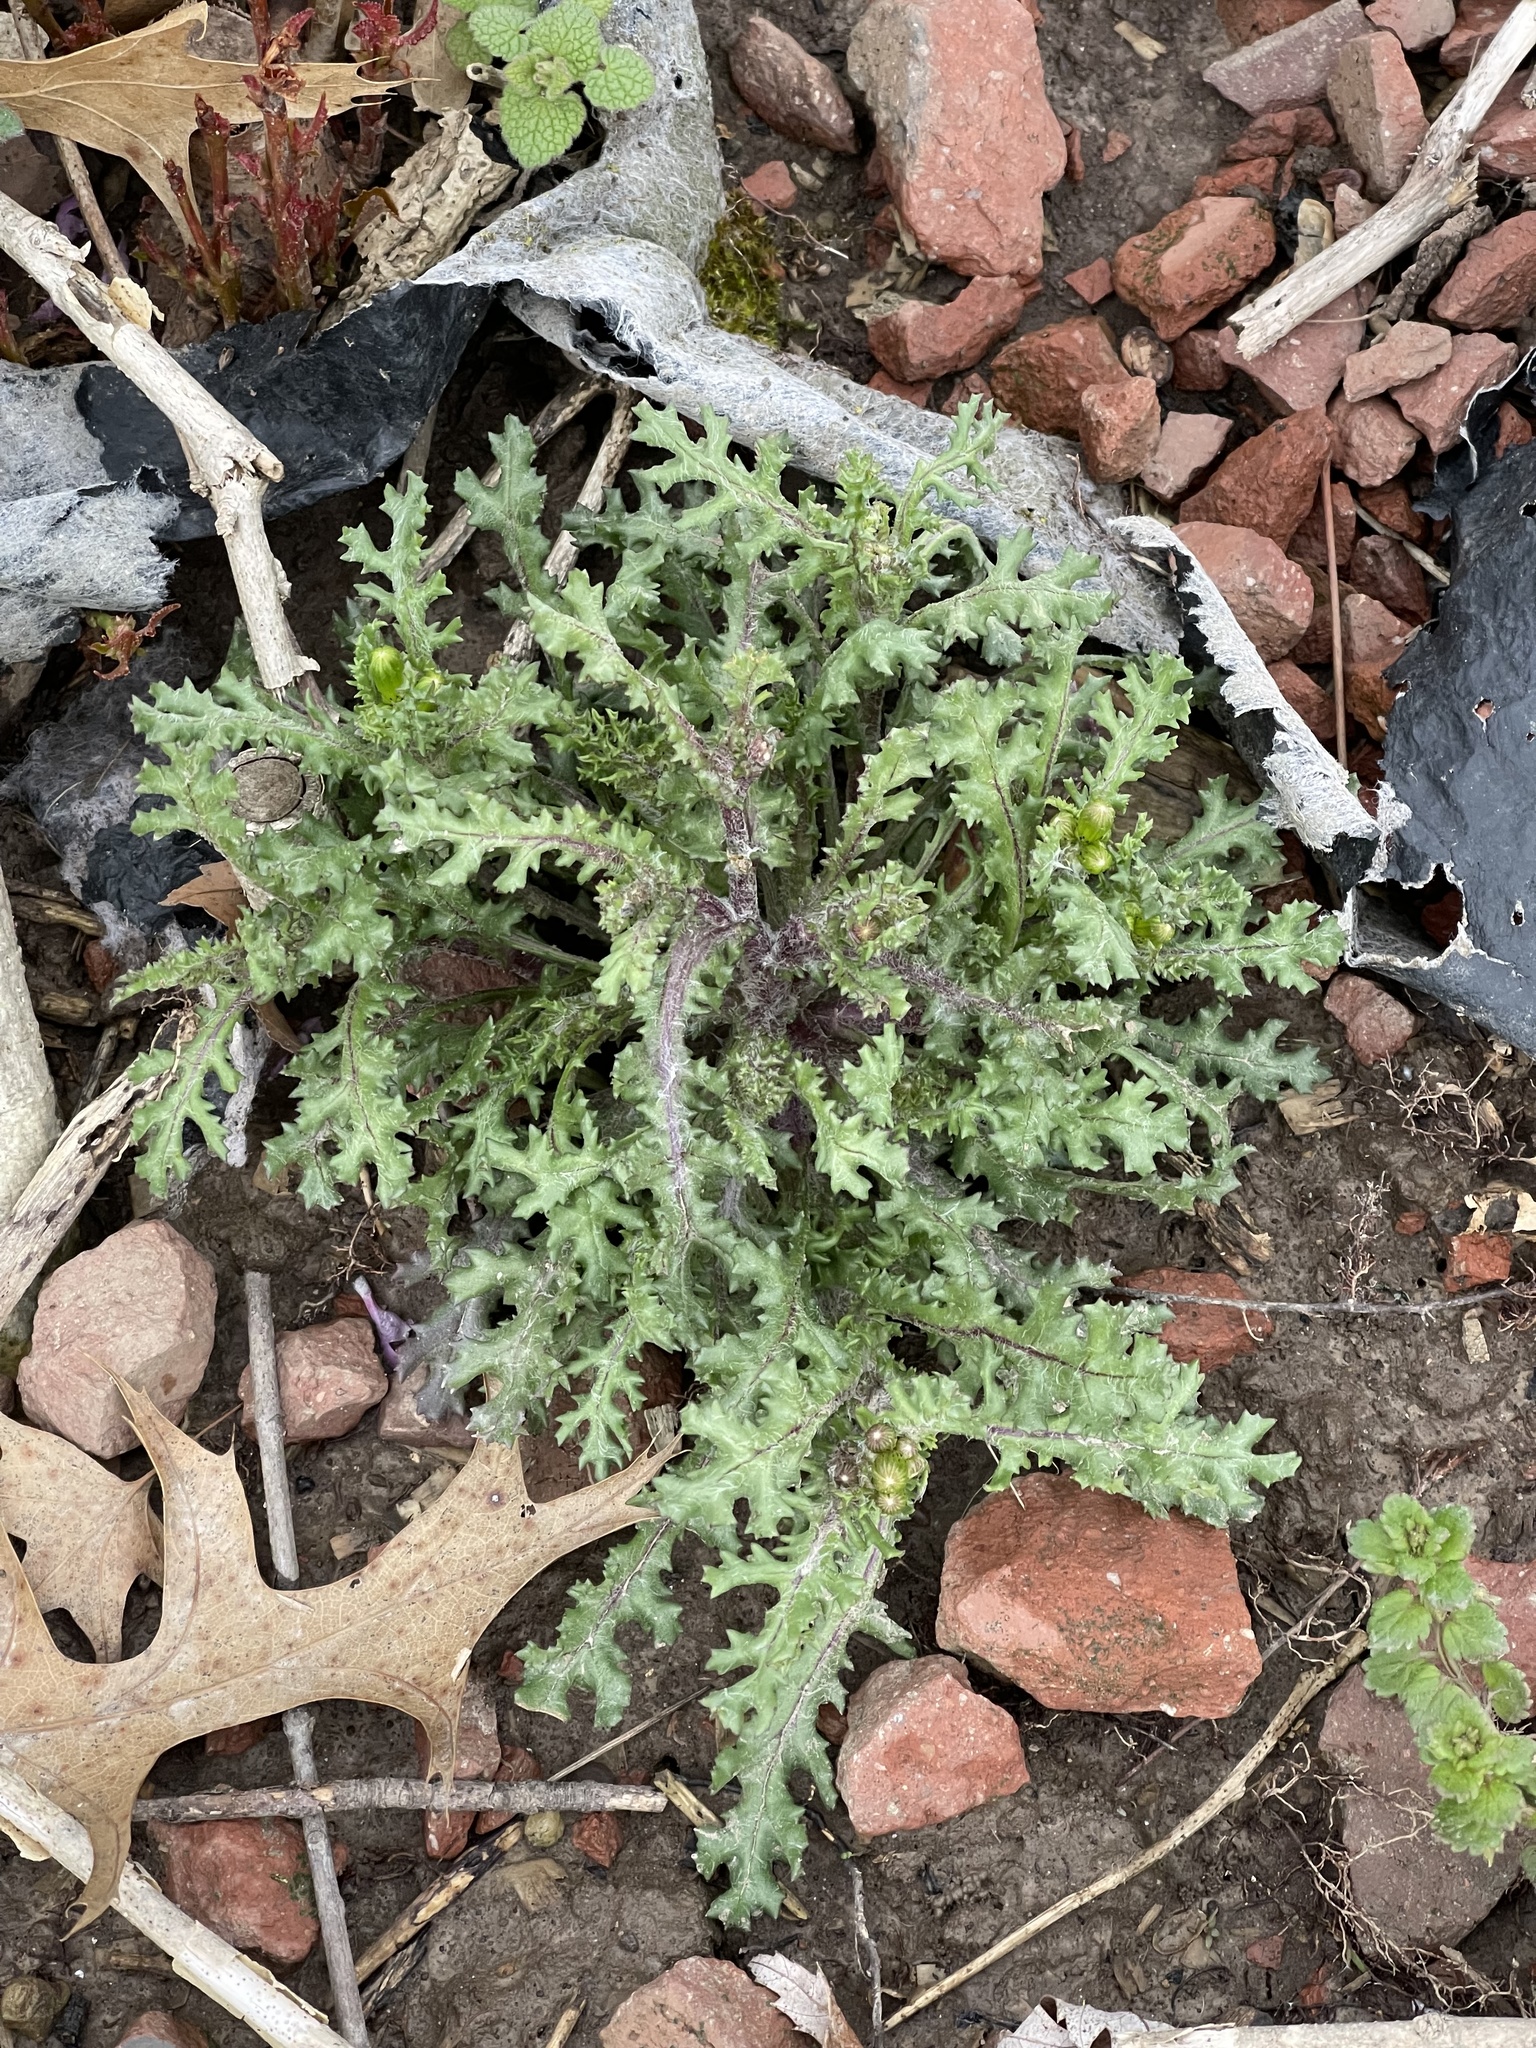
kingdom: Plantae
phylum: Tracheophyta
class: Magnoliopsida
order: Asterales
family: Asteraceae
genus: Senecio
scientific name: Senecio vulgaris
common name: Old-man-in-the-spring
